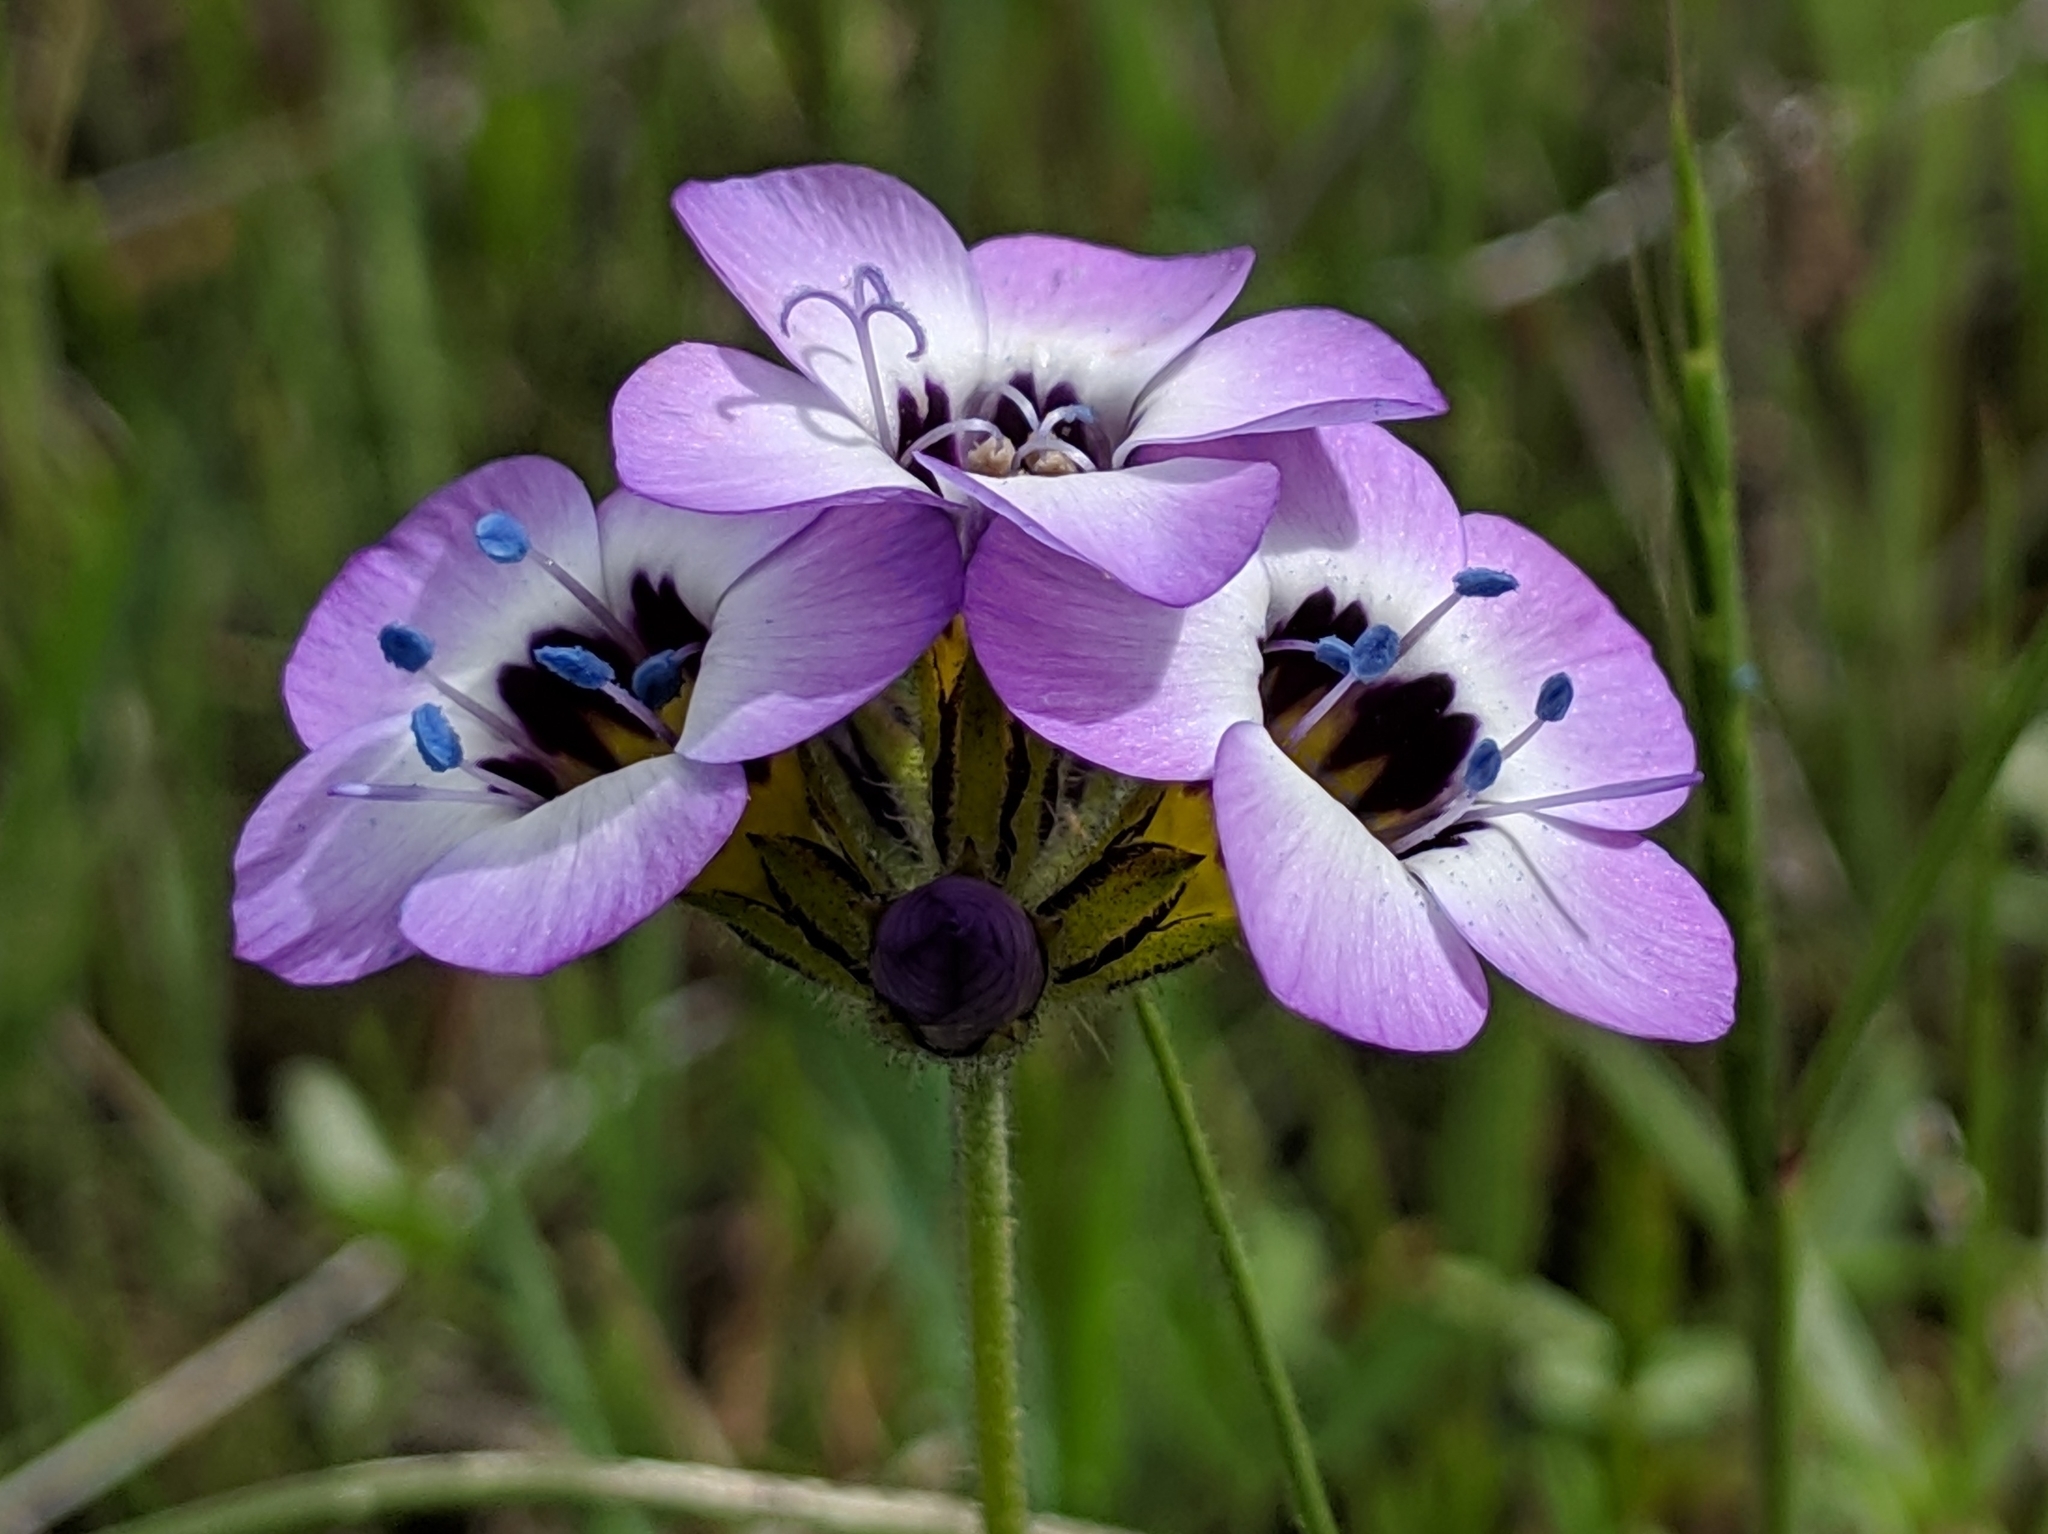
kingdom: Plantae
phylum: Tracheophyta
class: Magnoliopsida
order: Ericales
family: Polemoniaceae
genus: Gilia
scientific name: Gilia tricolor
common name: Bird's-eyes
